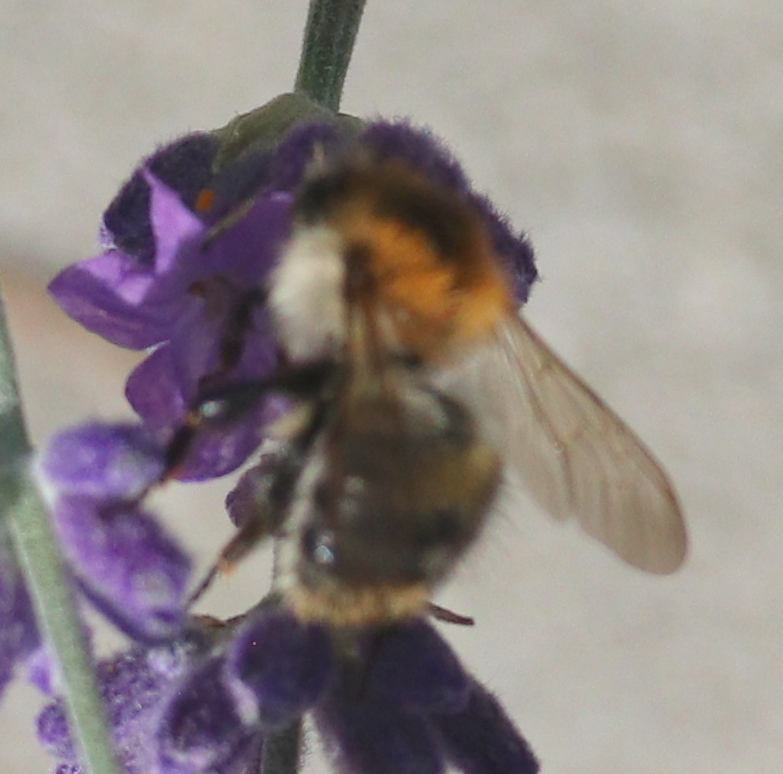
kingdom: Animalia
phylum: Arthropoda
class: Insecta
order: Hymenoptera
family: Apidae
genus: Bombus
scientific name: Bombus pascuorum
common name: Common carder bee
